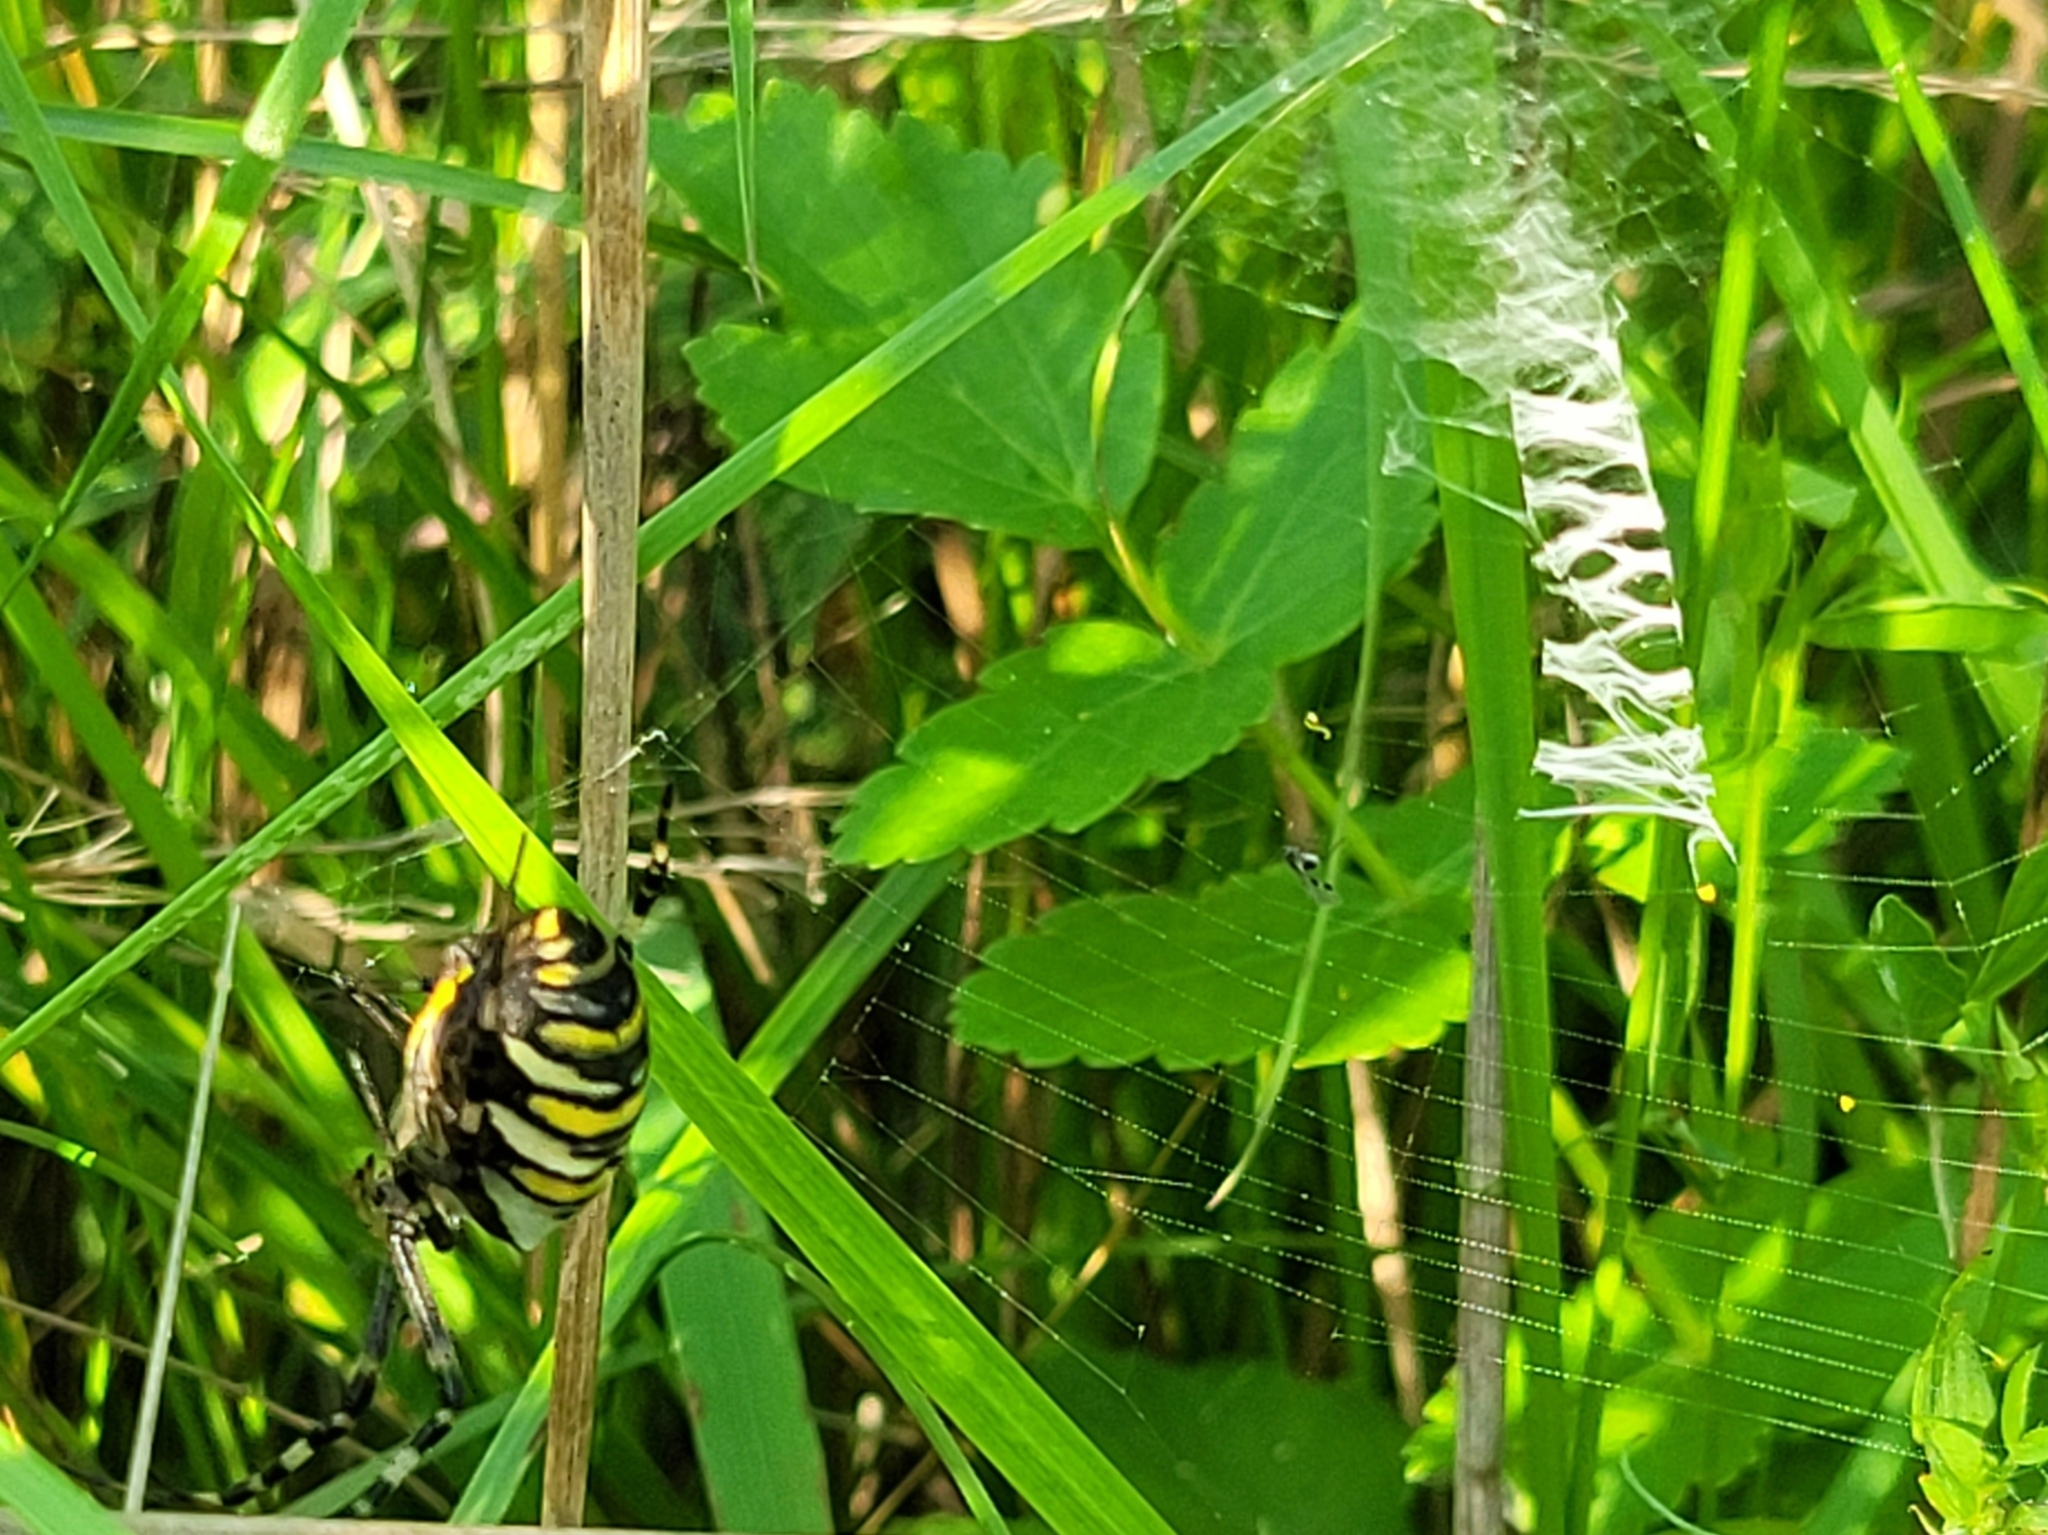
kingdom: Animalia
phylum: Arthropoda
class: Arachnida
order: Araneae
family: Araneidae
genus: Argiope
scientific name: Argiope bruennichi
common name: Wasp spider
